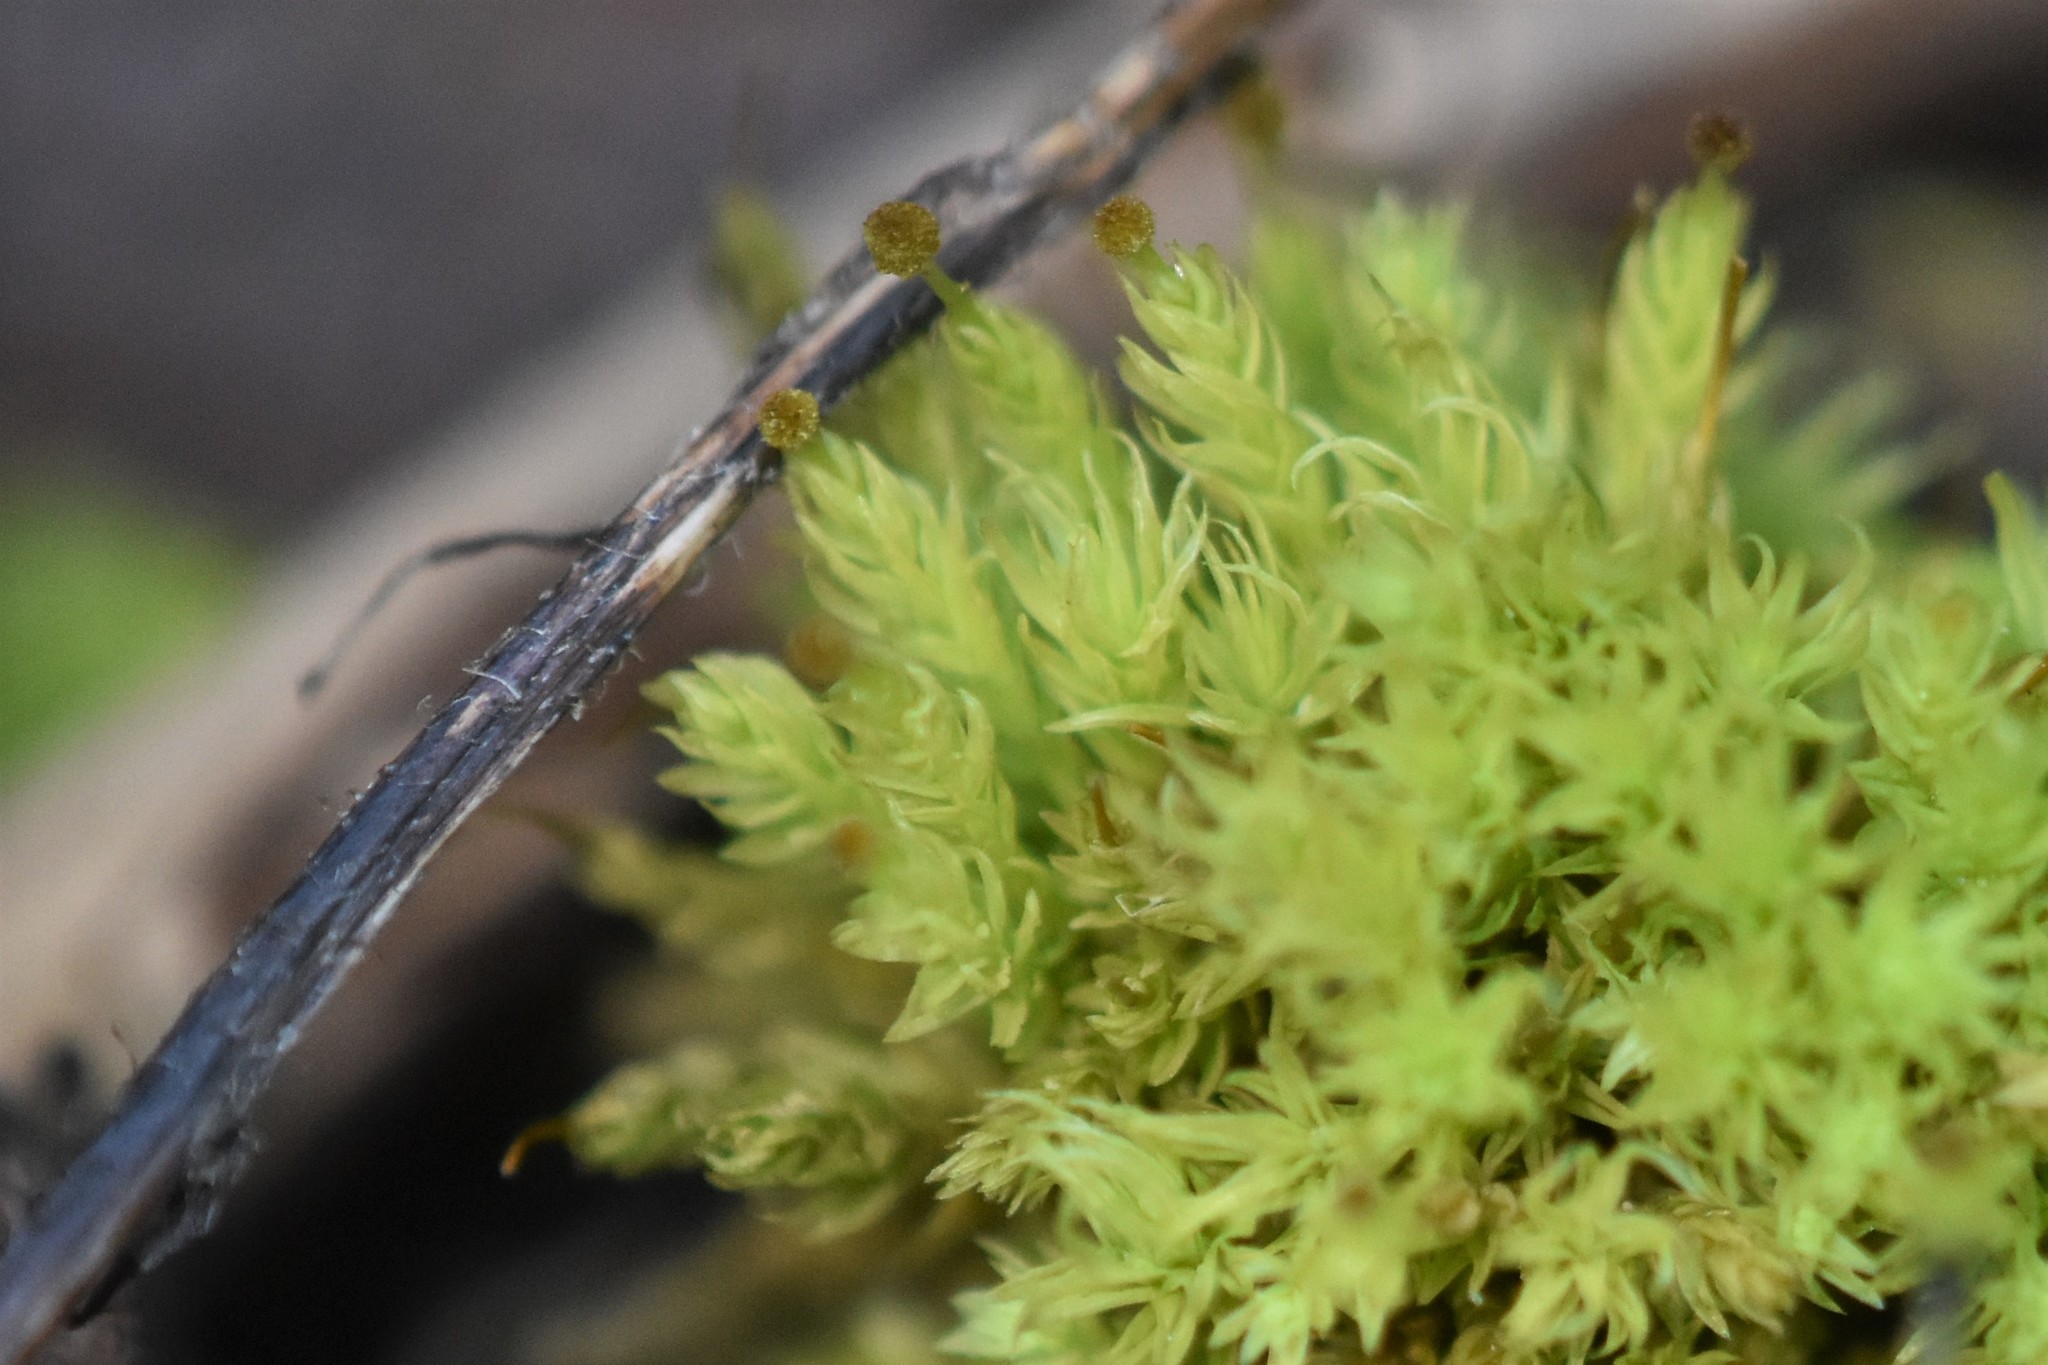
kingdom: Plantae
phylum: Bryophyta
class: Bryopsida
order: Aulacomniales
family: Aulacomniaceae
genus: Aulacomnium
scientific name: Aulacomnium androgynum
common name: Little groove moss
